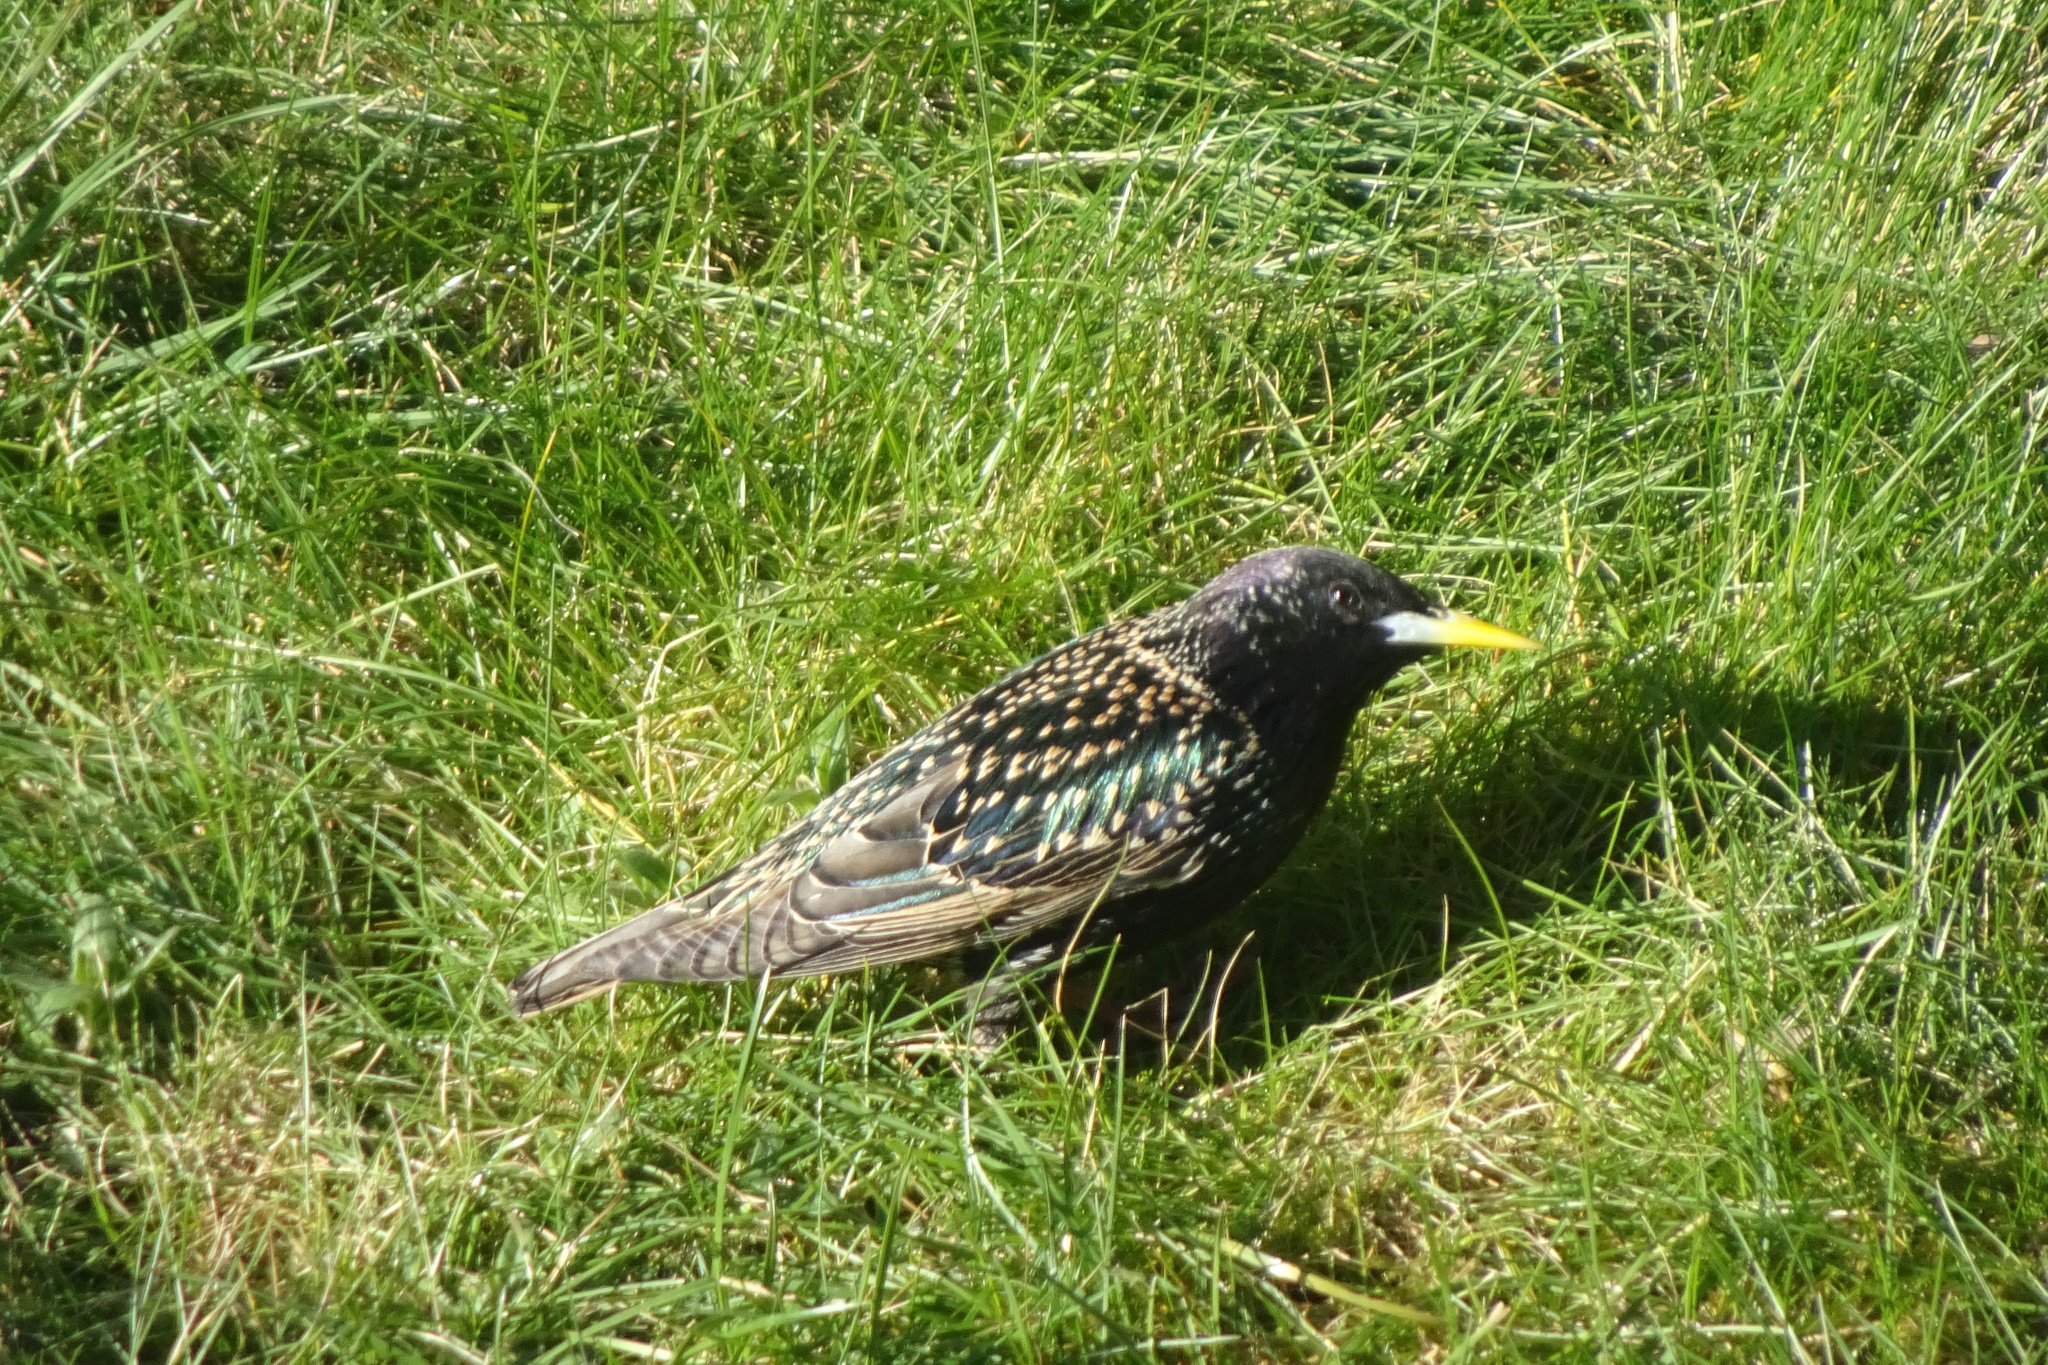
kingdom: Animalia
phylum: Chordata
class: Aves
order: Passeriformes
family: Sturnidae
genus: Sturnus
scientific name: Sturnus vulgaris
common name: Common starling
